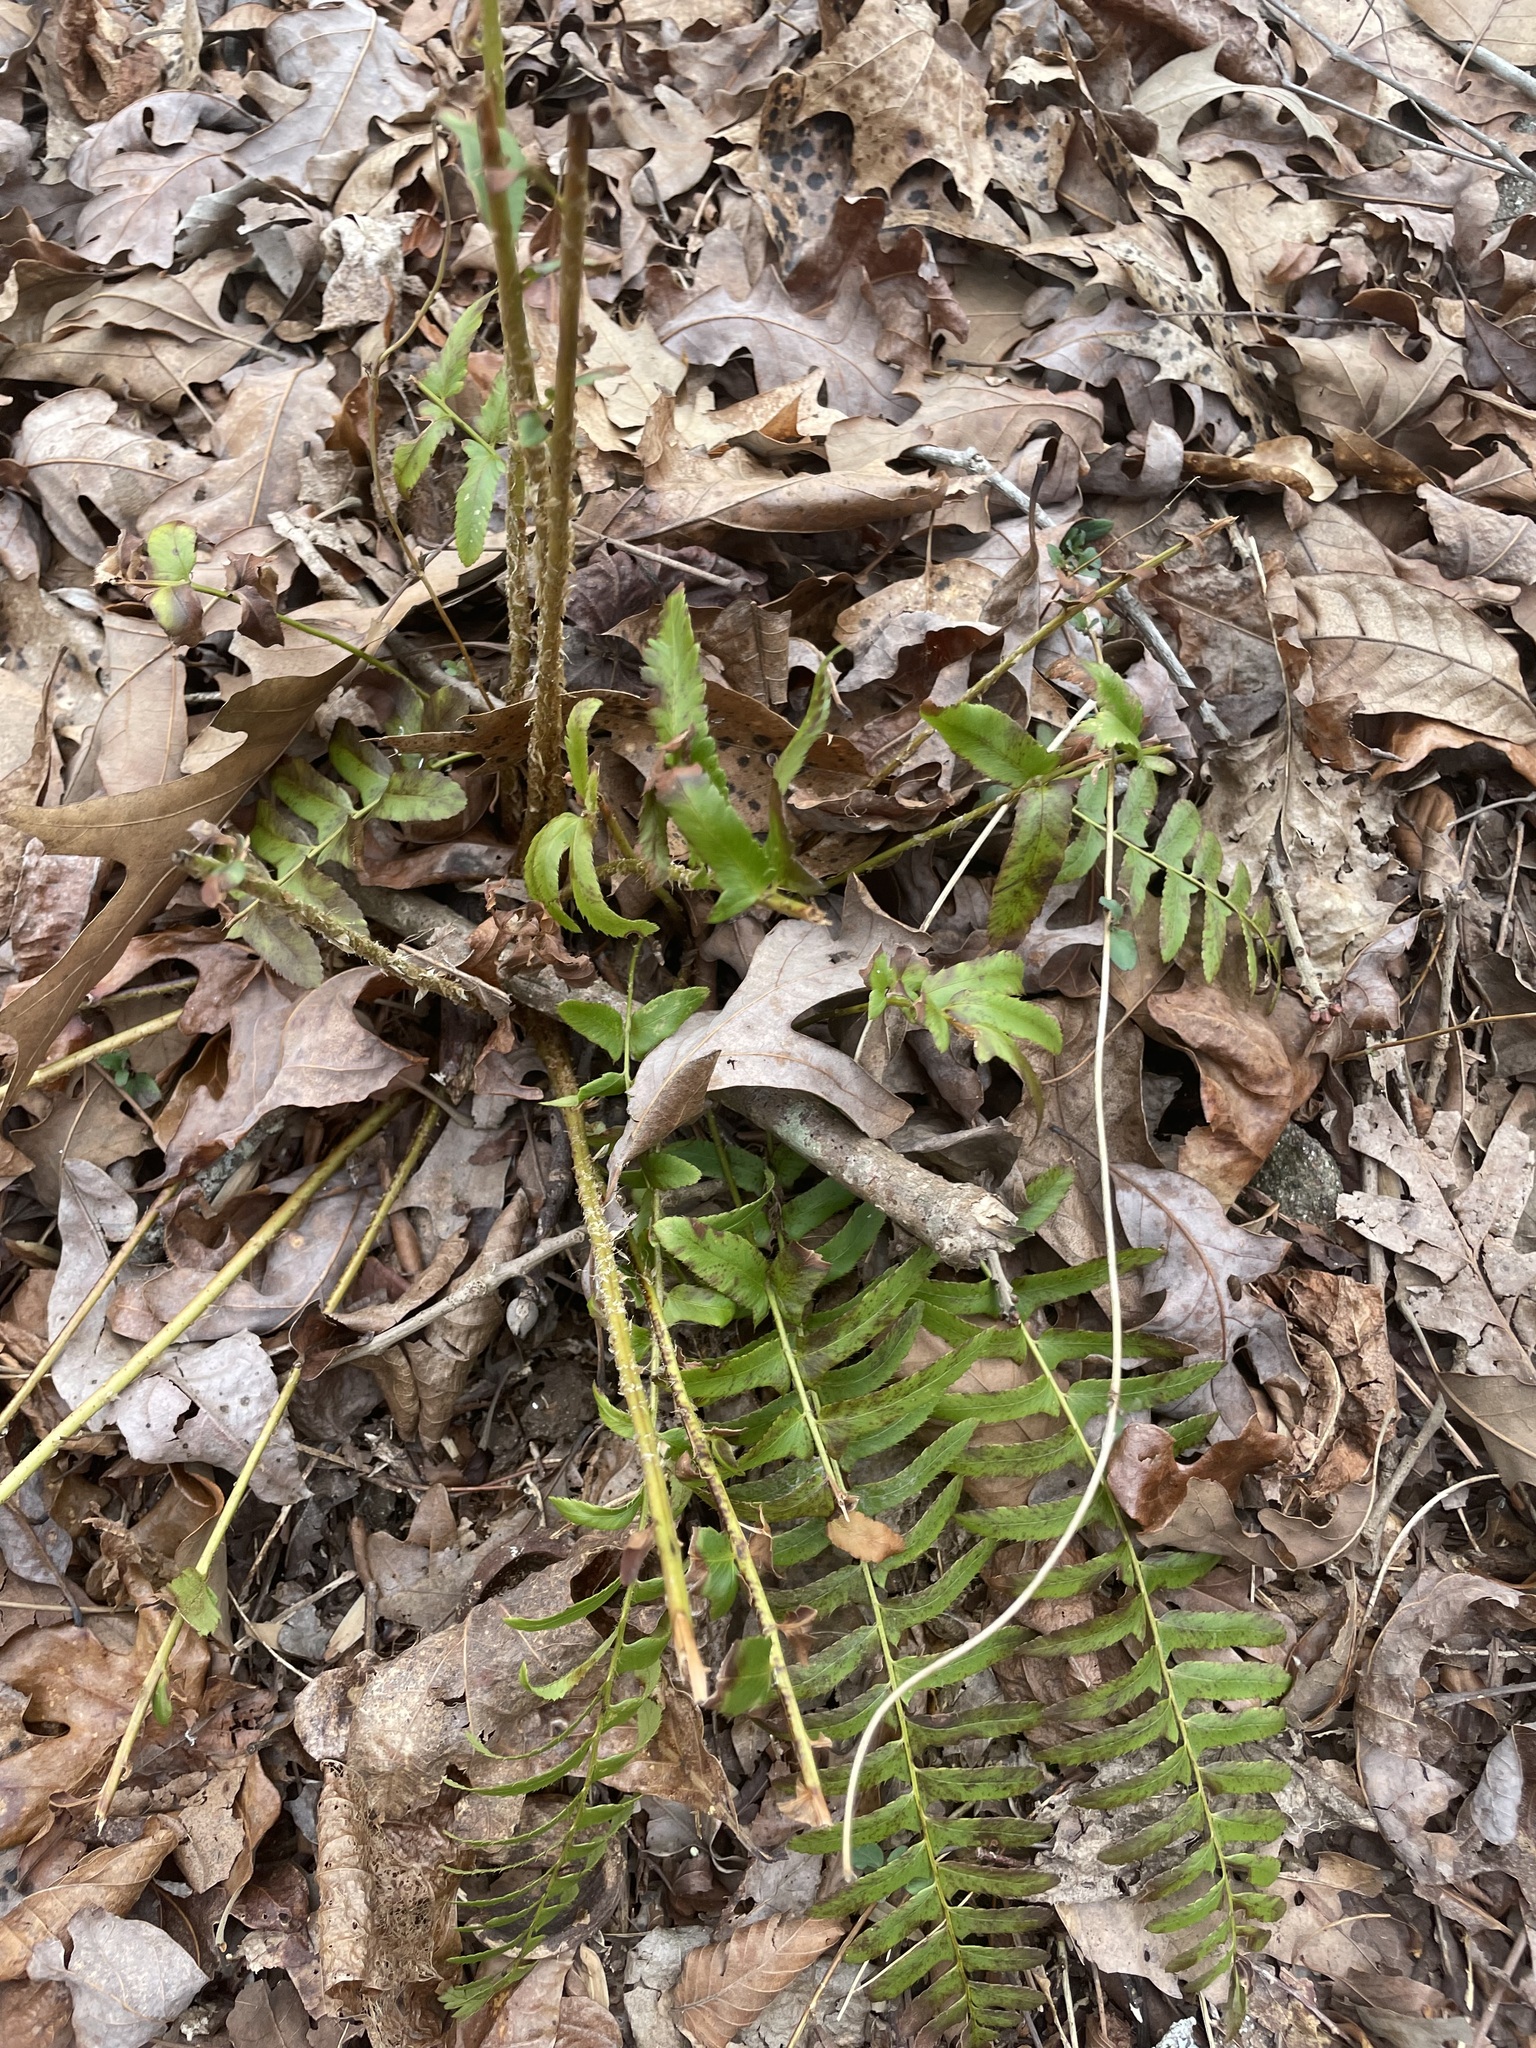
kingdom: Plantae
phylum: Tracheophyta
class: Polypodiopsida
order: Polypodiales
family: Dryopteridaceae
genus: Polystichum
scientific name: Polystichum acrostichoides
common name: Christmas fern
